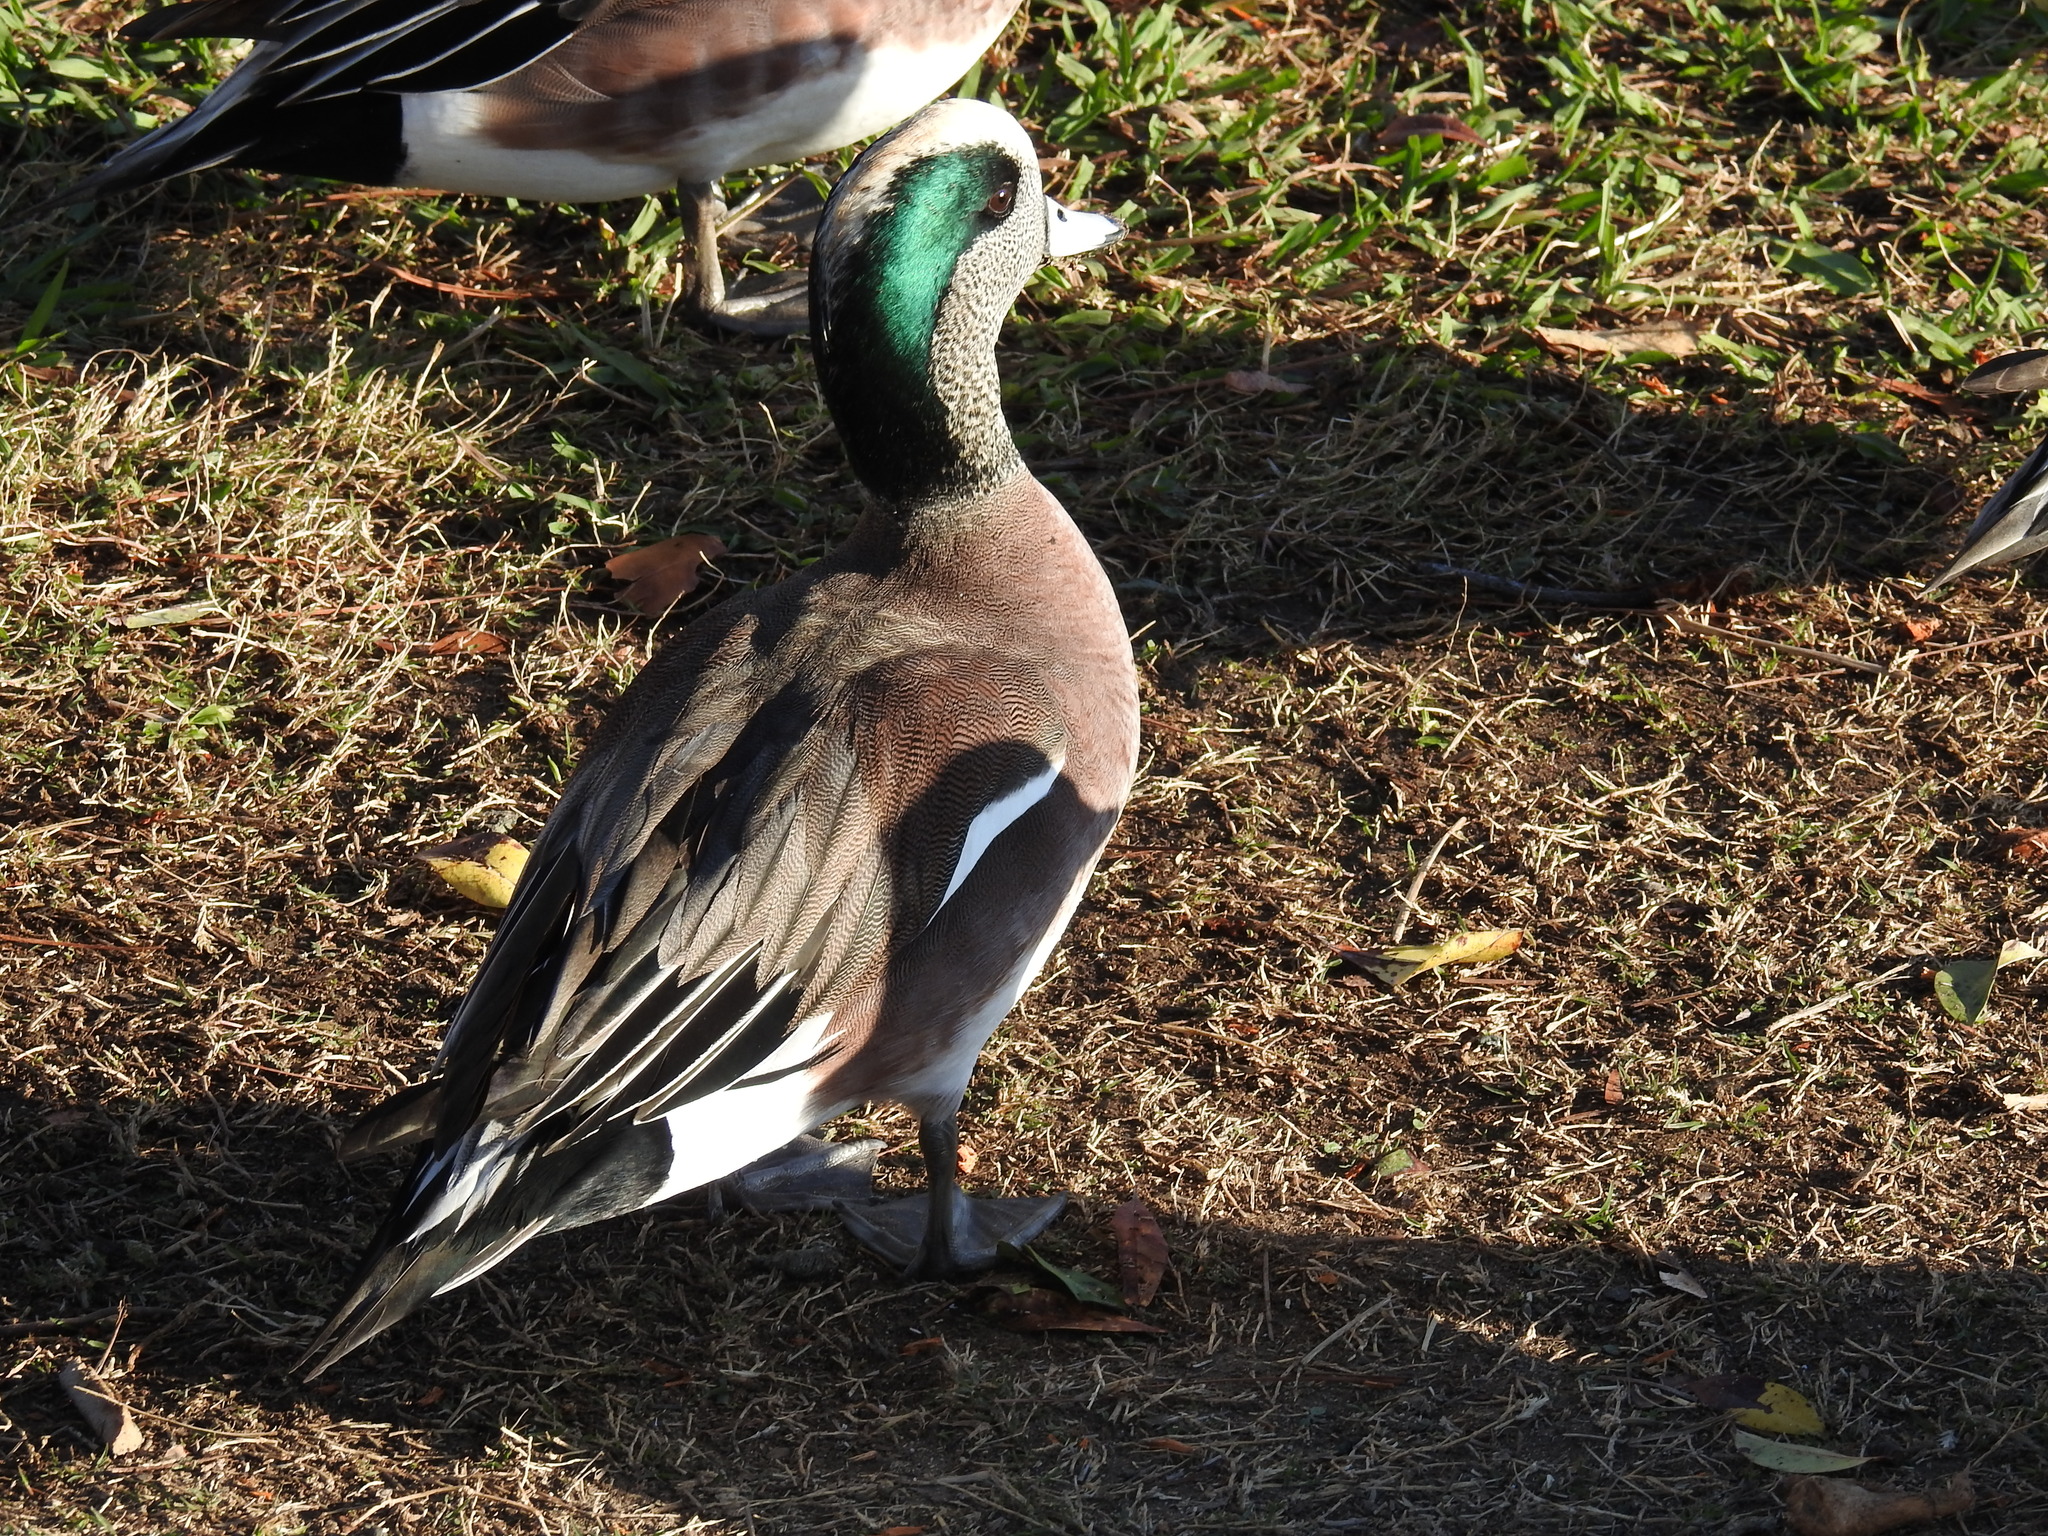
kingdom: Animalia
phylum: Chordata
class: Aves
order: Anseriformes
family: Anatidae
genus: Mareca
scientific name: Mareca americana
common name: American wigeon
